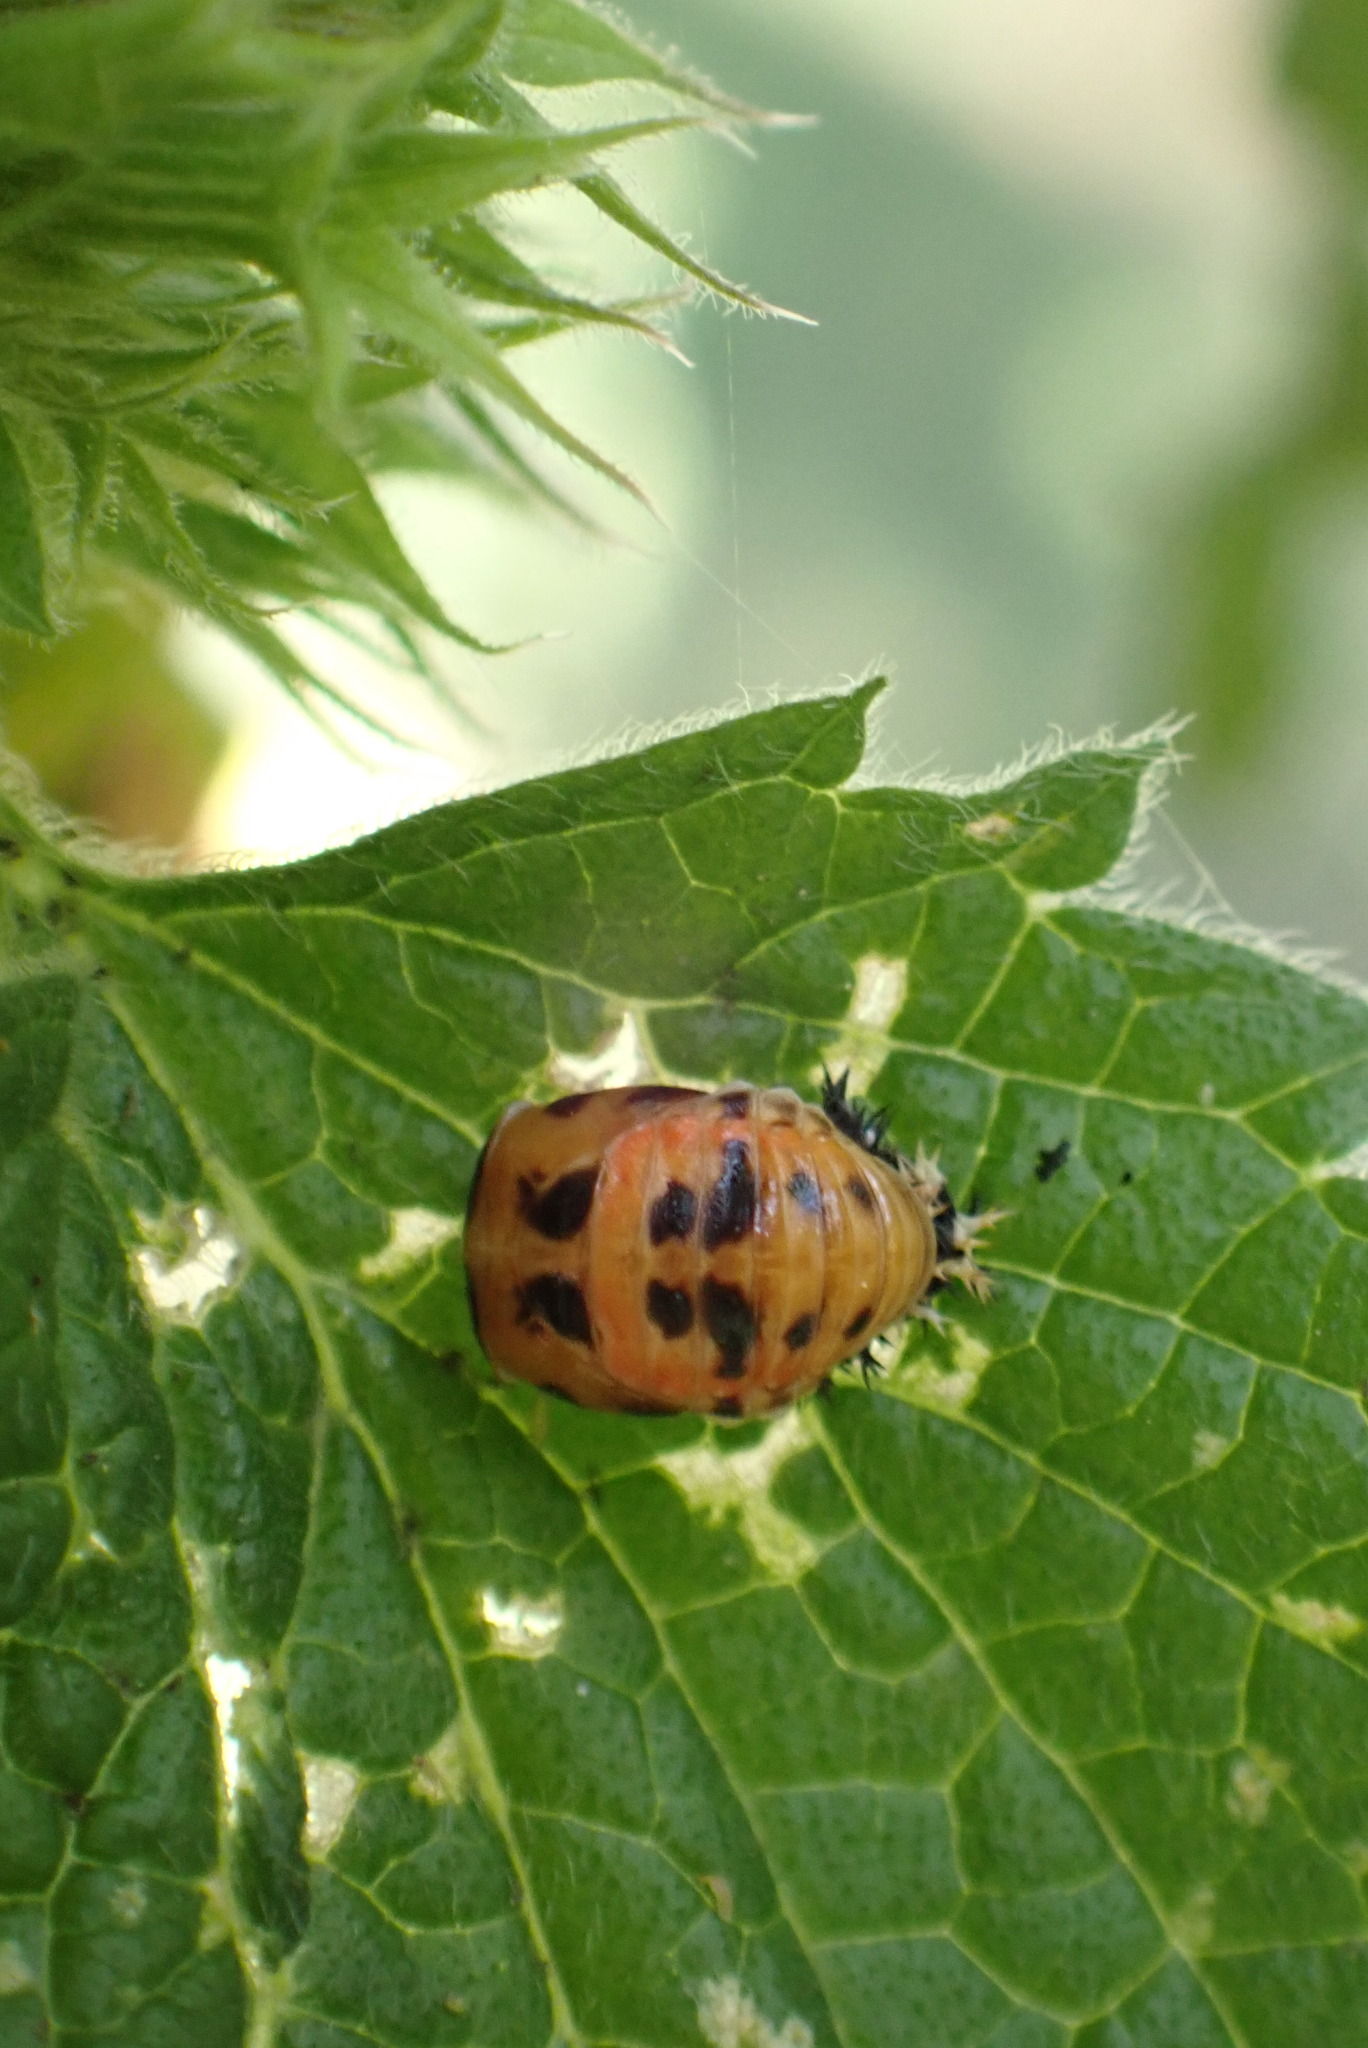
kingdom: Animalia
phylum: Arthropoda
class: Insecta
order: Coleoptera
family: Coccinellidae
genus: Harmonia
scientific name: Harmonia axyridis
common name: Harlequin ladybird
